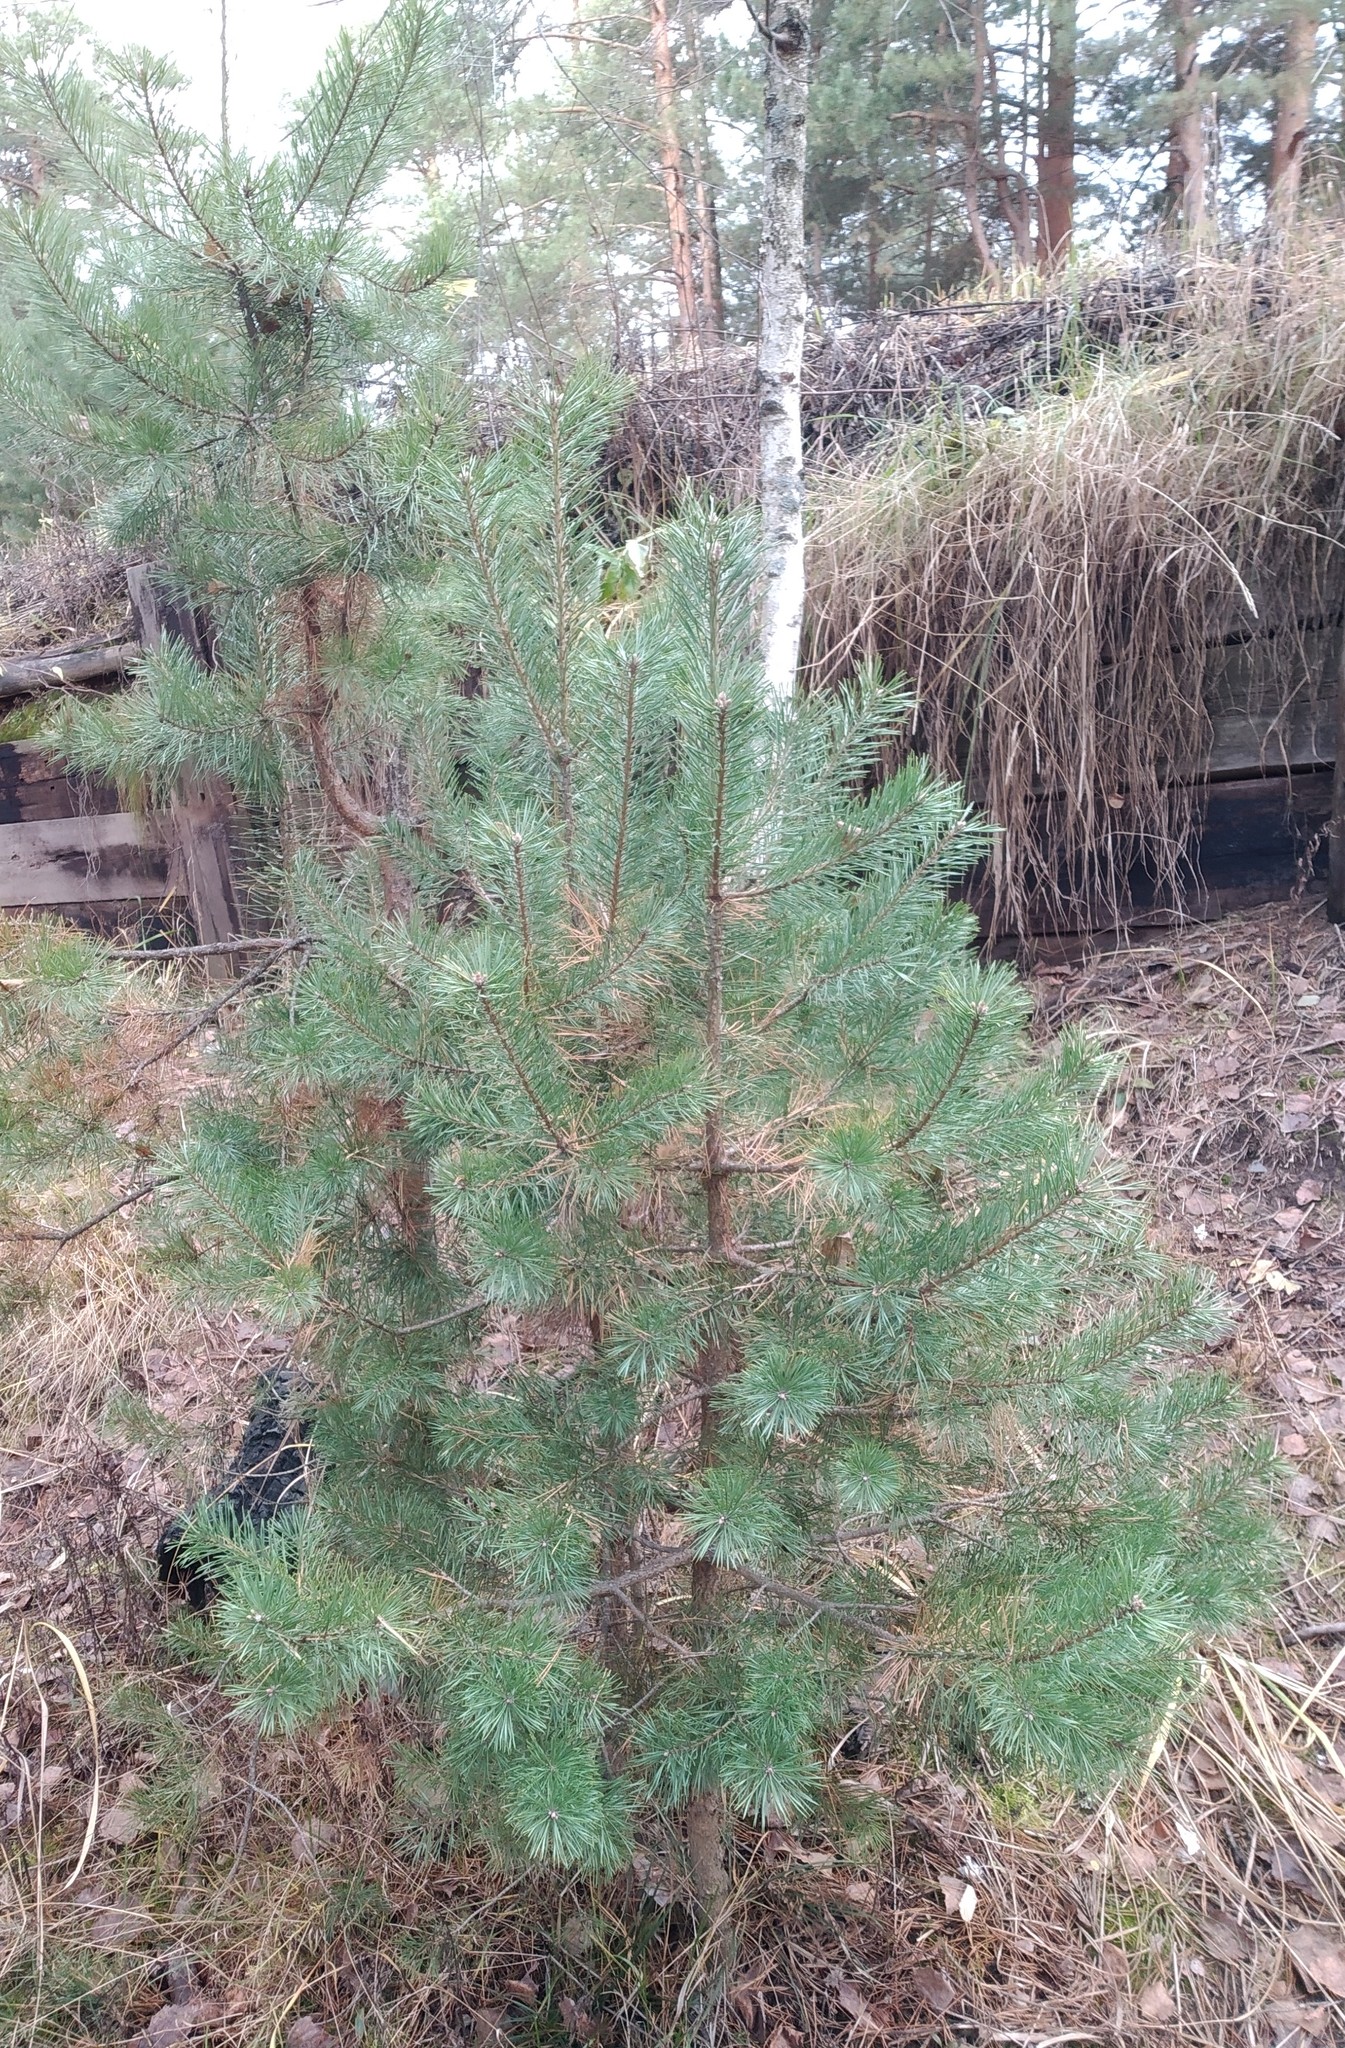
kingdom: Plantae
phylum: Tracheophyta
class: Pinopsida
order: Pinales
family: Pinaceae
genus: Pinus
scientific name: Pinus sylvestris
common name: Scots pine
